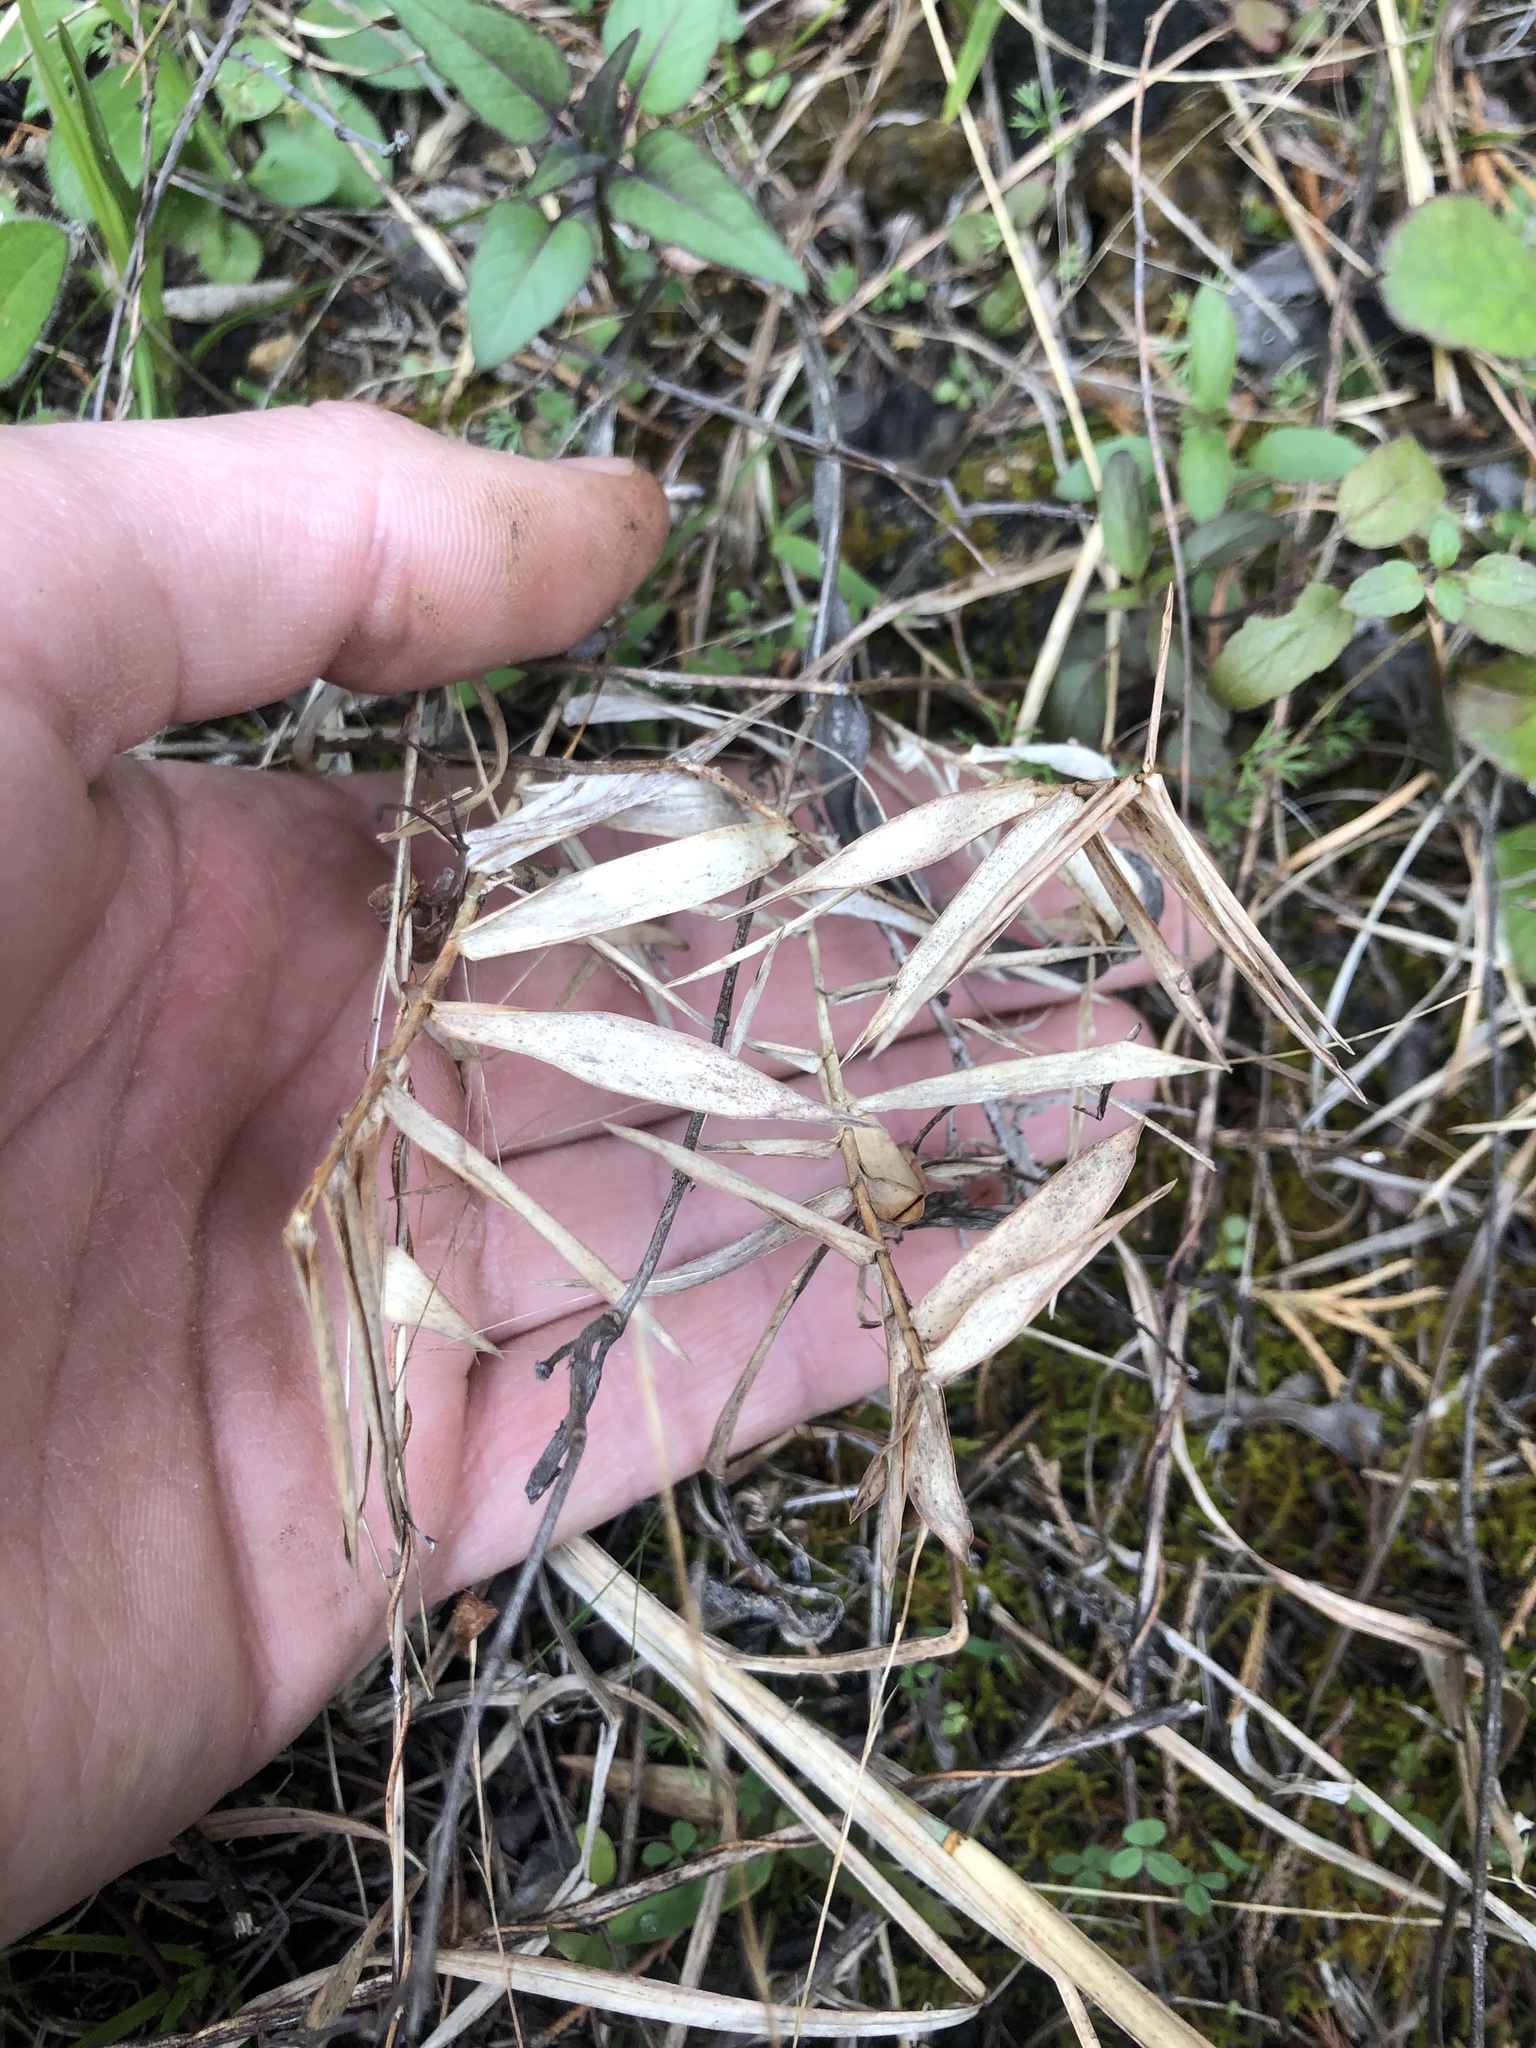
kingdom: Plantae
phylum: Tracheophyta
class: Liliopsida
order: Poales
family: Poaceae
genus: Gymnopogon
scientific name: Gymnopogon ambiguus
